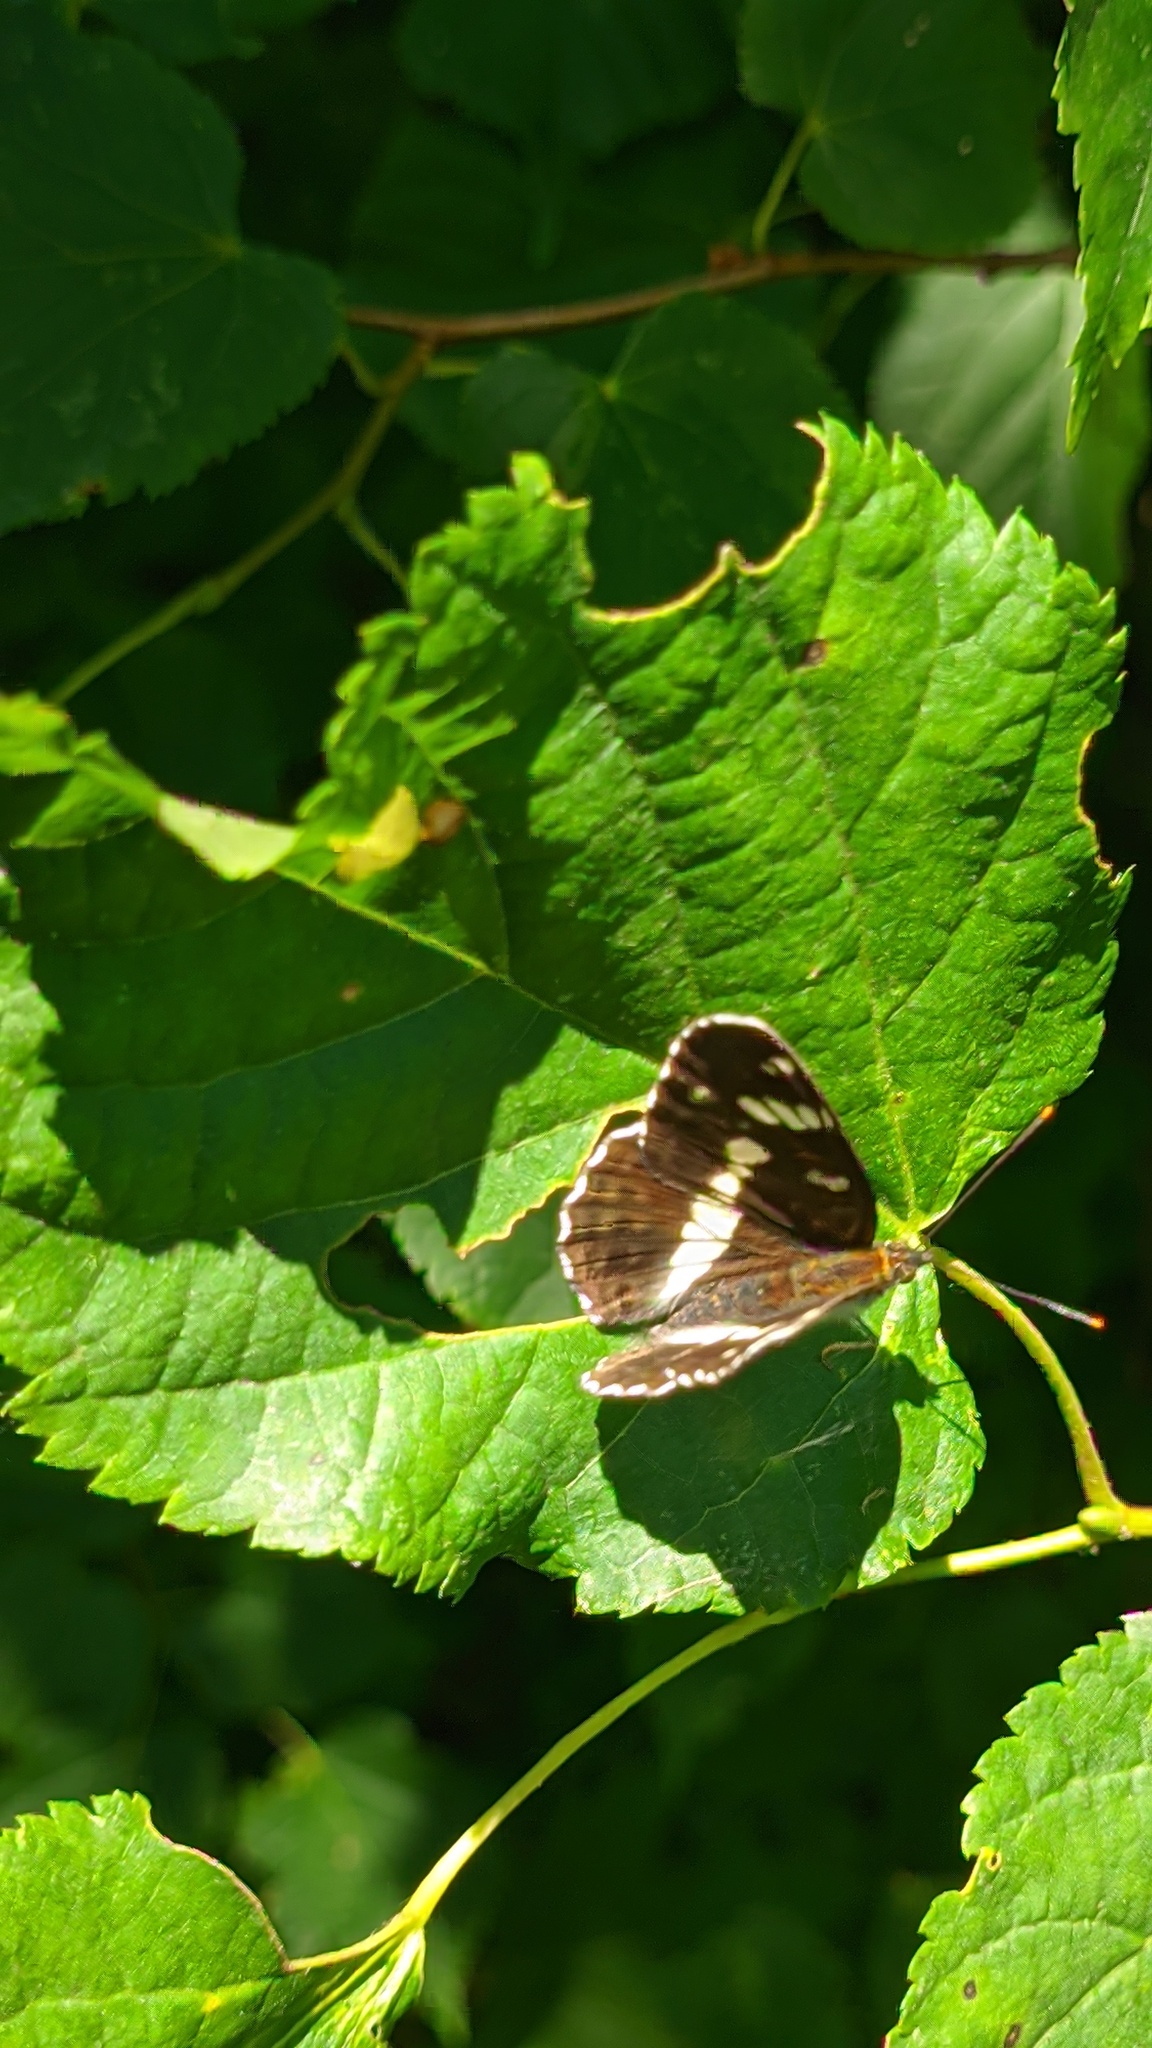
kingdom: Animalia
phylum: Arthropoda
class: Insecta
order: Lepidoptera
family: Nymphalidae
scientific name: Nymphalidae
